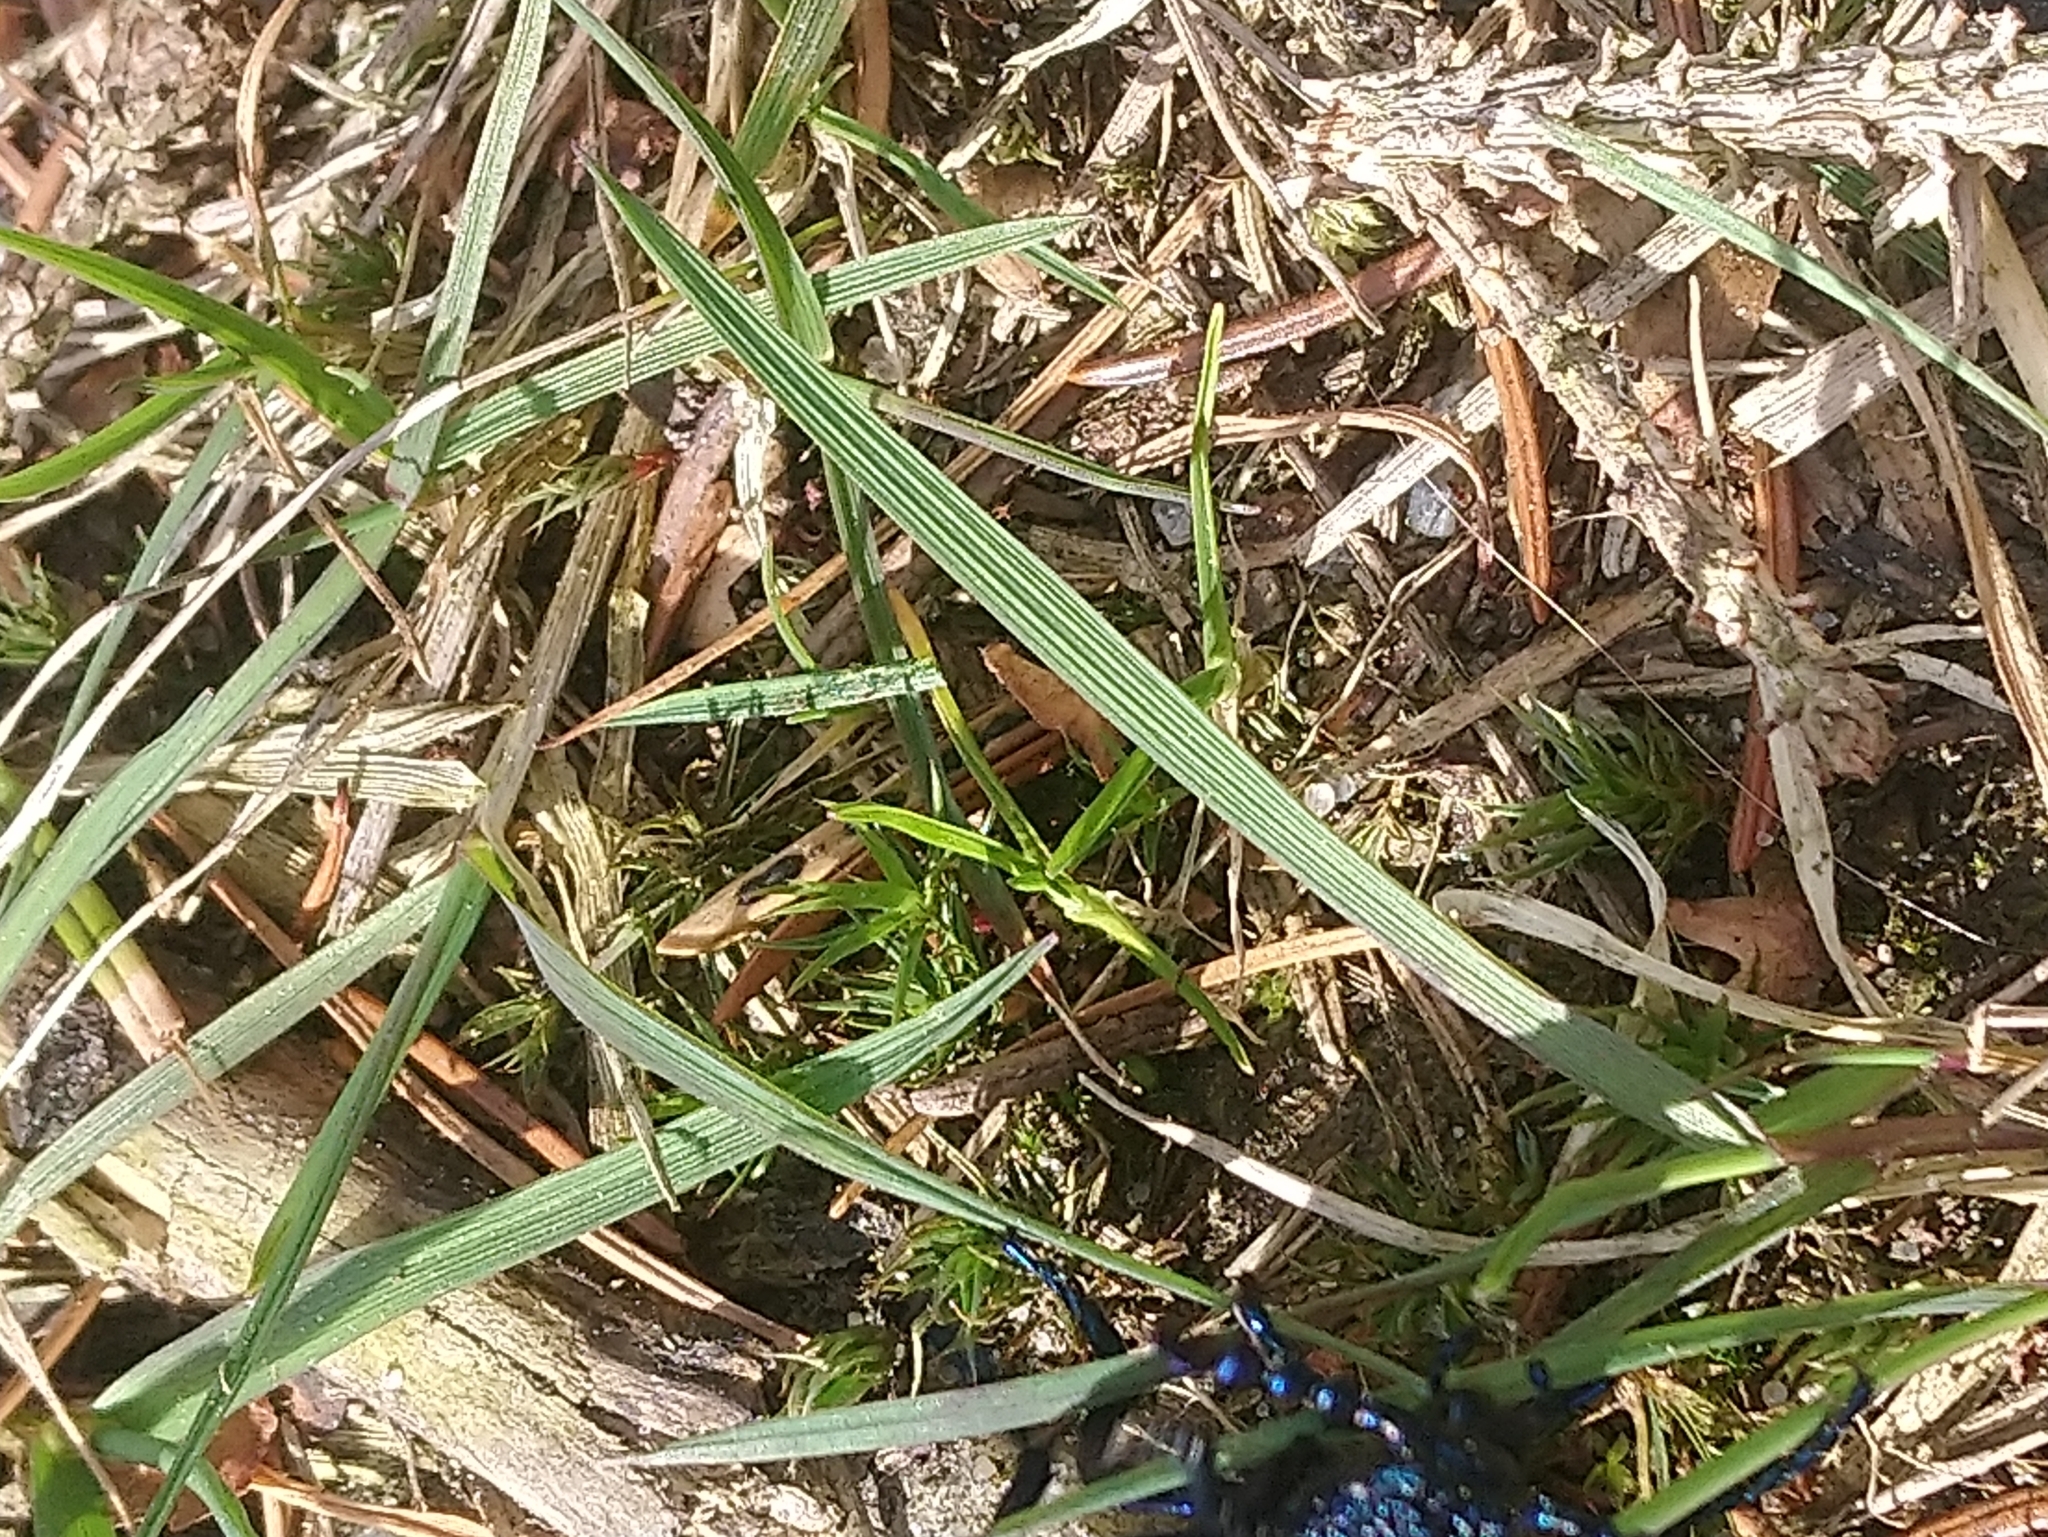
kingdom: Animalia
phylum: Arthropoda
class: Insecta
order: Coleoptera
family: Meloidae
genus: Meloe
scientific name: Meloe proscarabaeus
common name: Black oil-beetle
